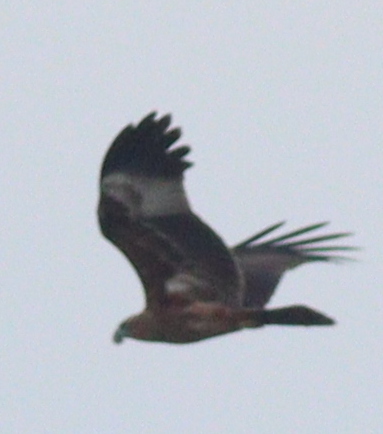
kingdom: Animalia
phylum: Chordata
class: Aves
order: Accipitriformes
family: Accipitridae
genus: Haliastur
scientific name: Haliastur indus
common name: Brahminy kite
